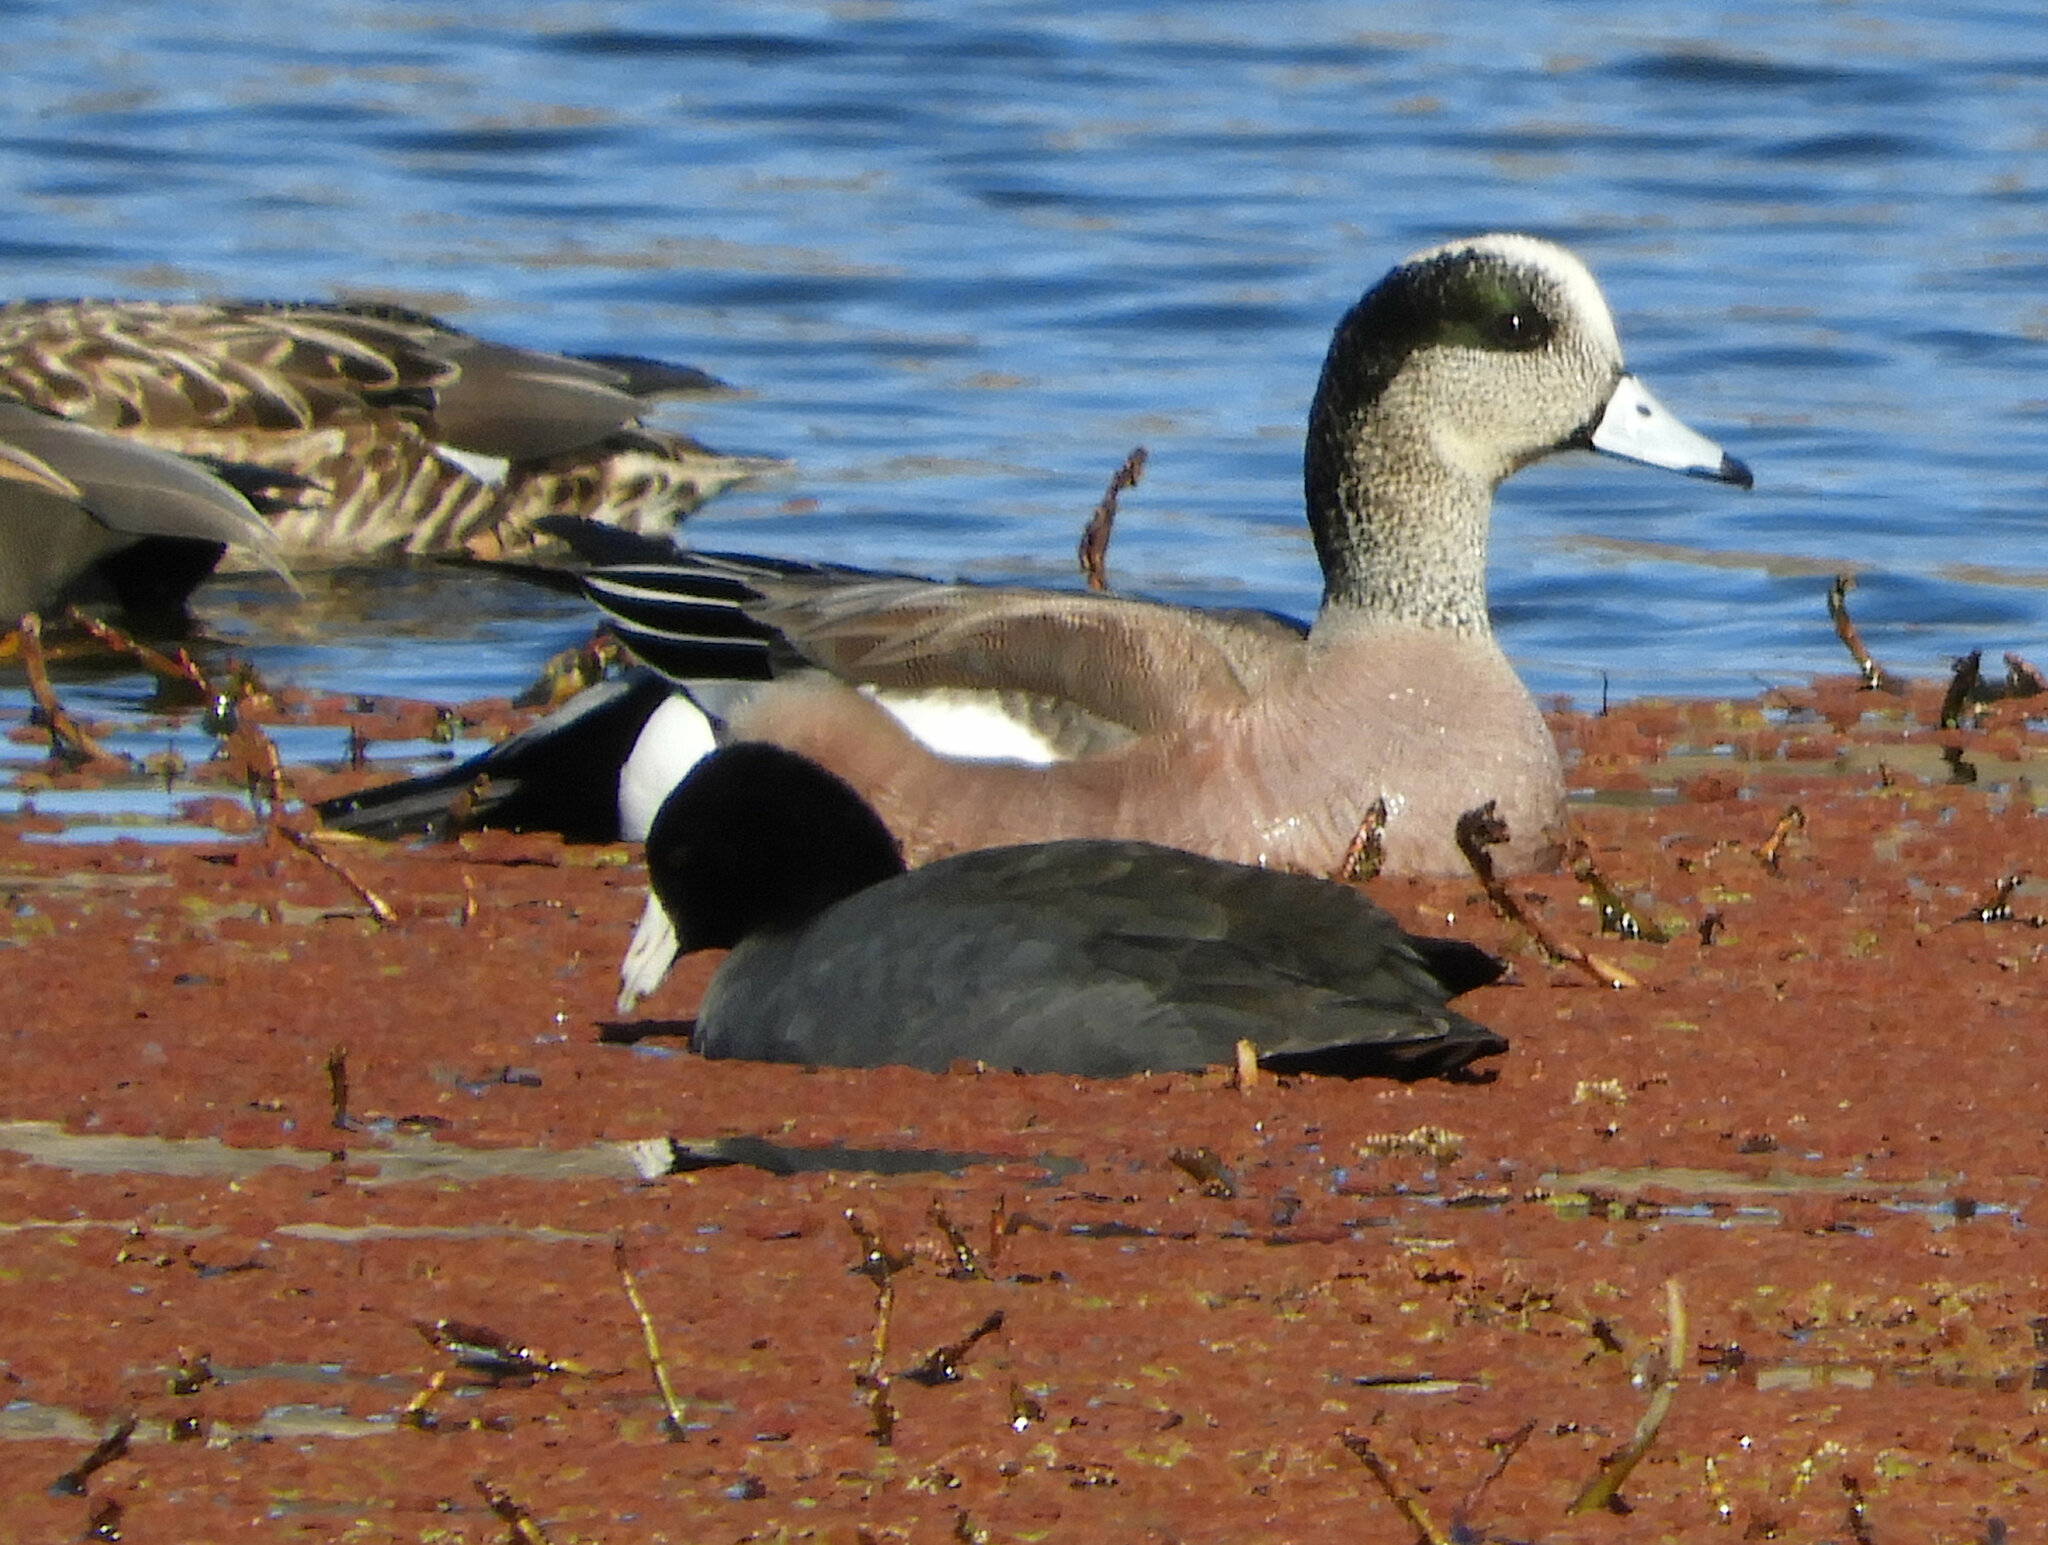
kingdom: Animalia
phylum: Chordata
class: Aves
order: Anseriformes
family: Anatidae
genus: Mareca
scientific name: Mareca americana
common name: American wigeon
